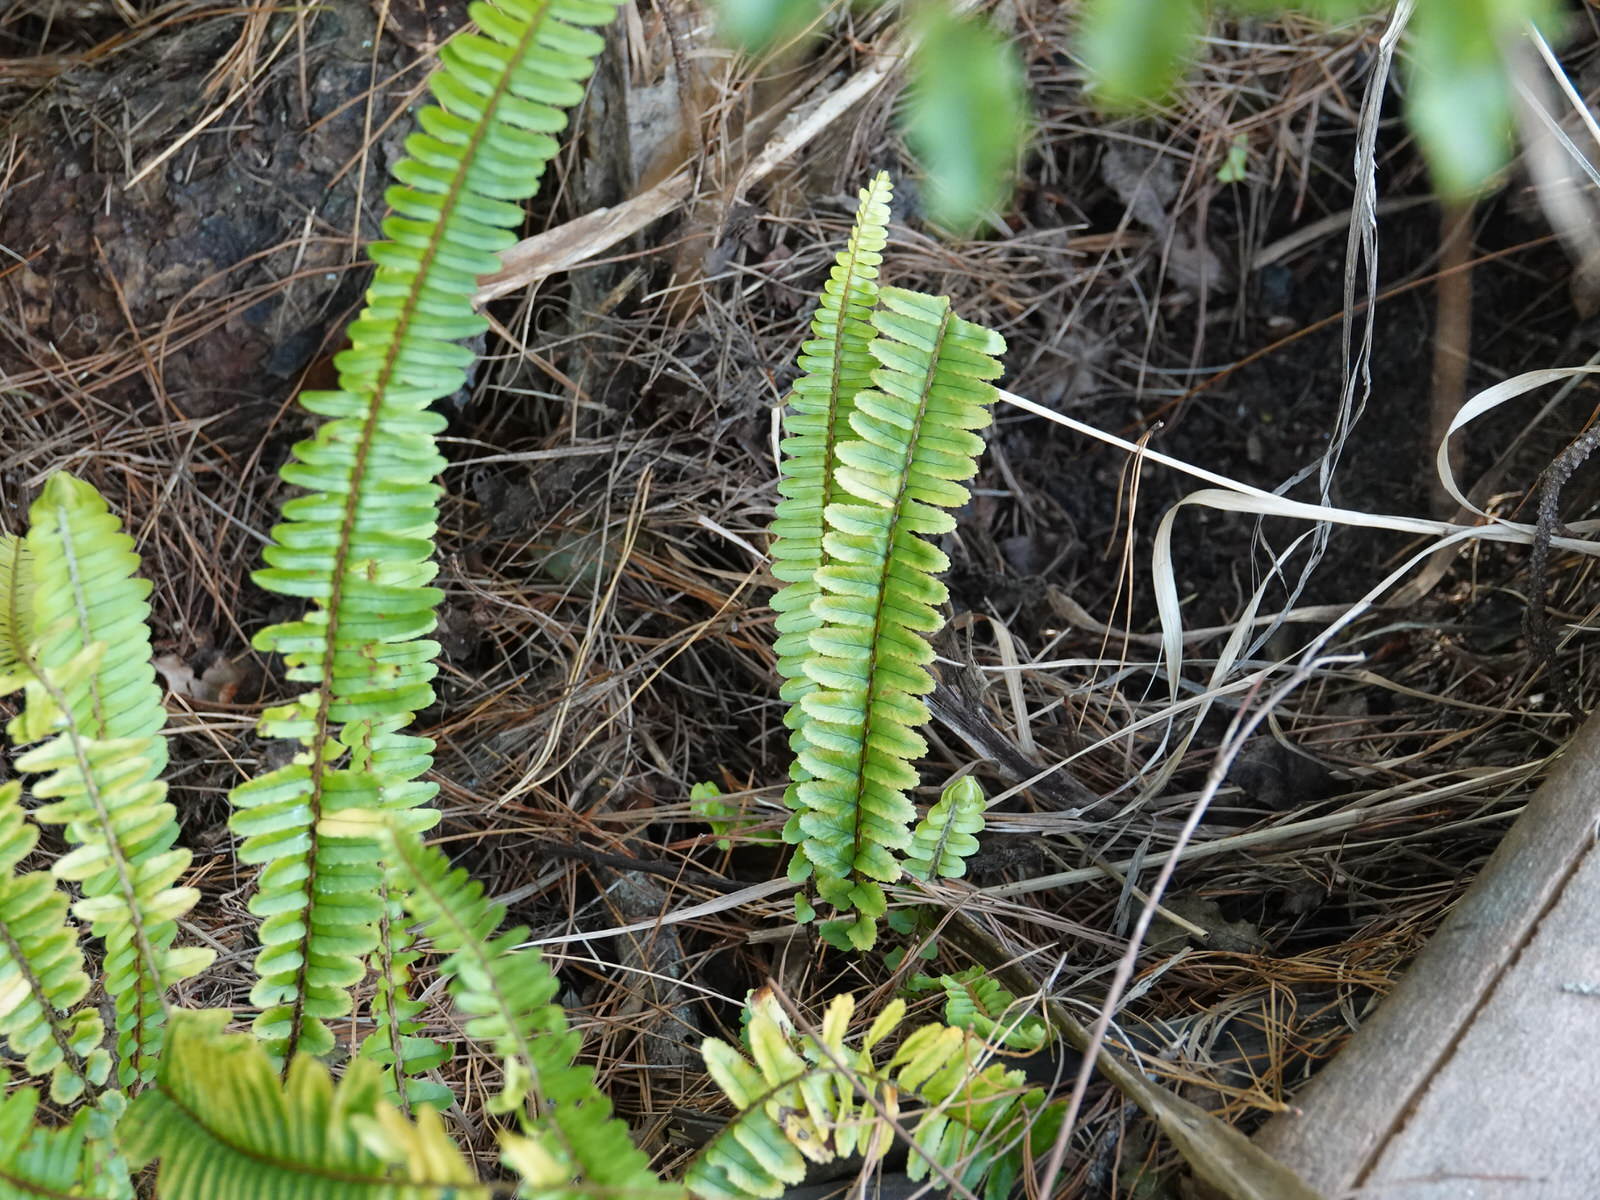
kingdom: Plantae
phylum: Tracheophyta
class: Polypodiopsida
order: Polypodiales
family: Nephrolepidaceae
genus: Nephrolepis
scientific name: Nephrolepis cordifolia
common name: Narrow swordfern
